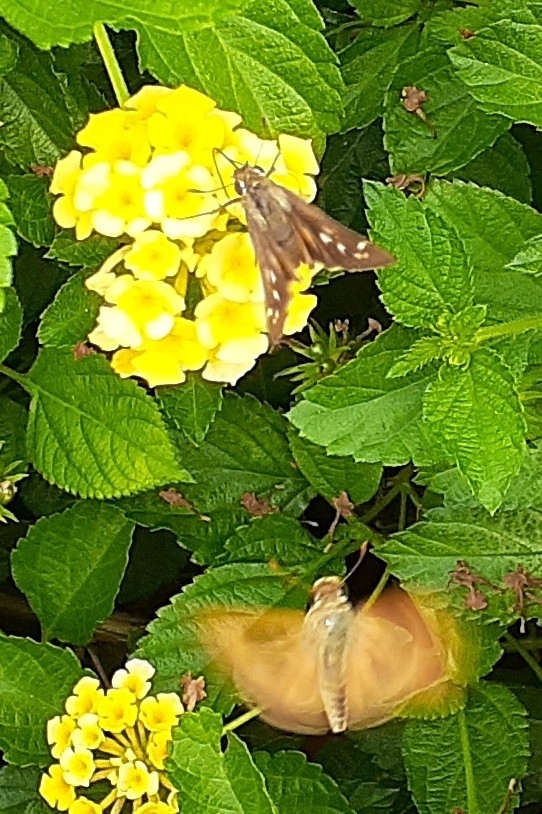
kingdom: Animalia
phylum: Arthropoda
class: Insecta
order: Lepidoptera
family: Hesperiidae
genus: Atalopedes
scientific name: Atalopedes
